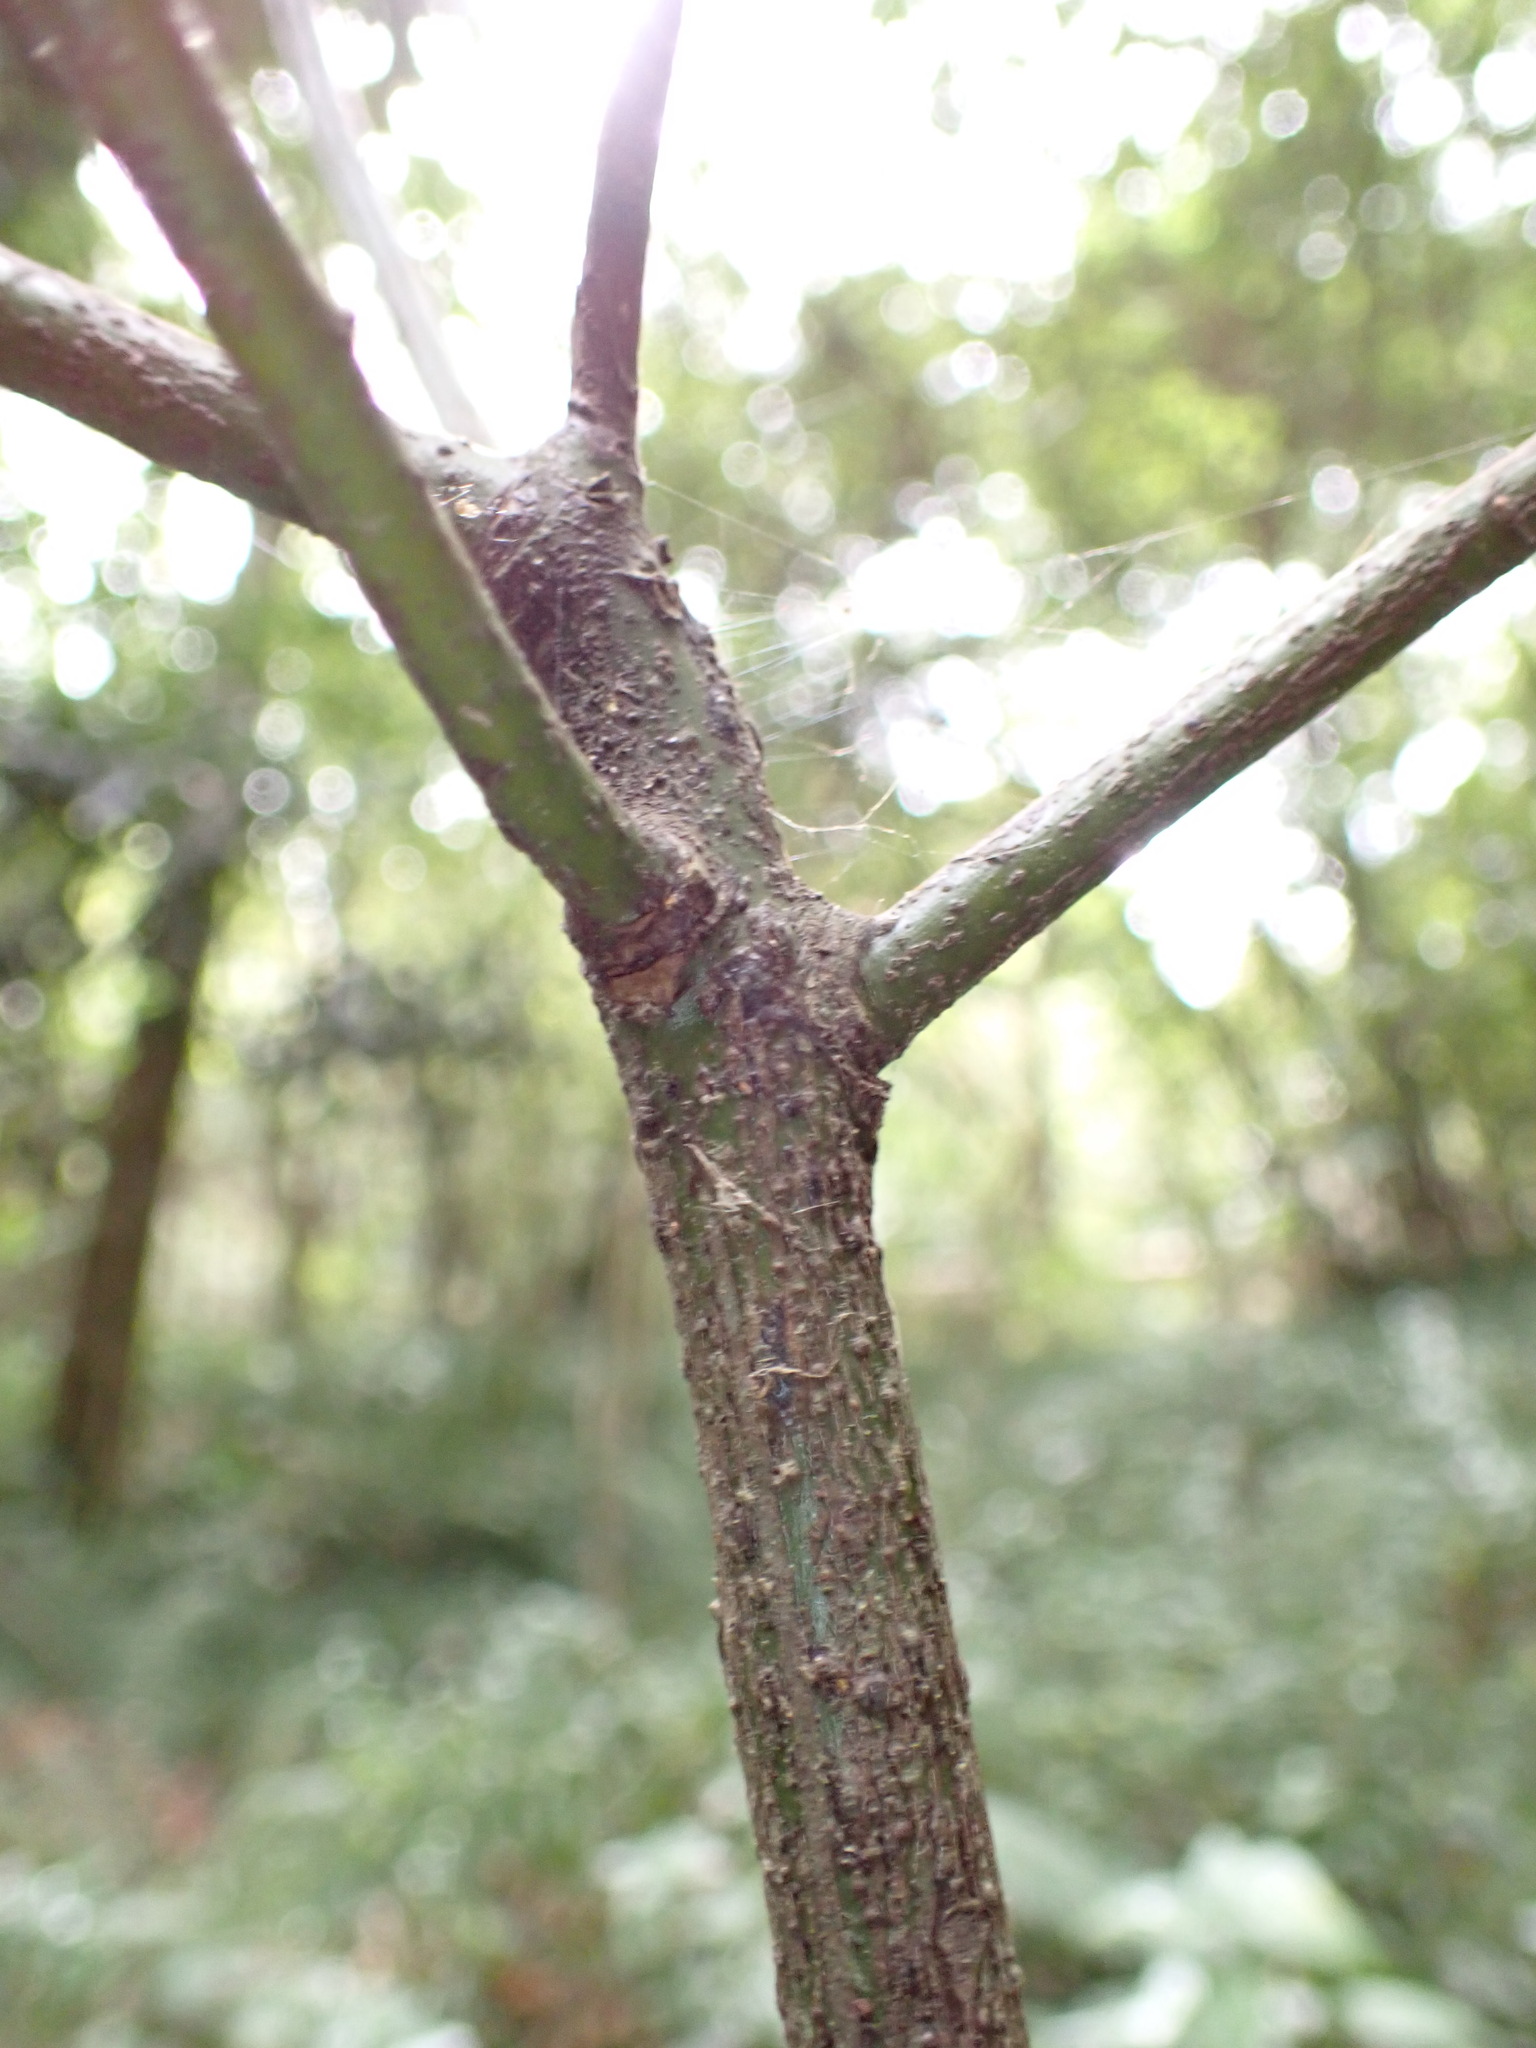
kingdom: Plantae
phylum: Tracheophyta
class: Magnoliopsida
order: Laurales
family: Lauraceae
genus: Laurus
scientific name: Laurus nobilis
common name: Bay
